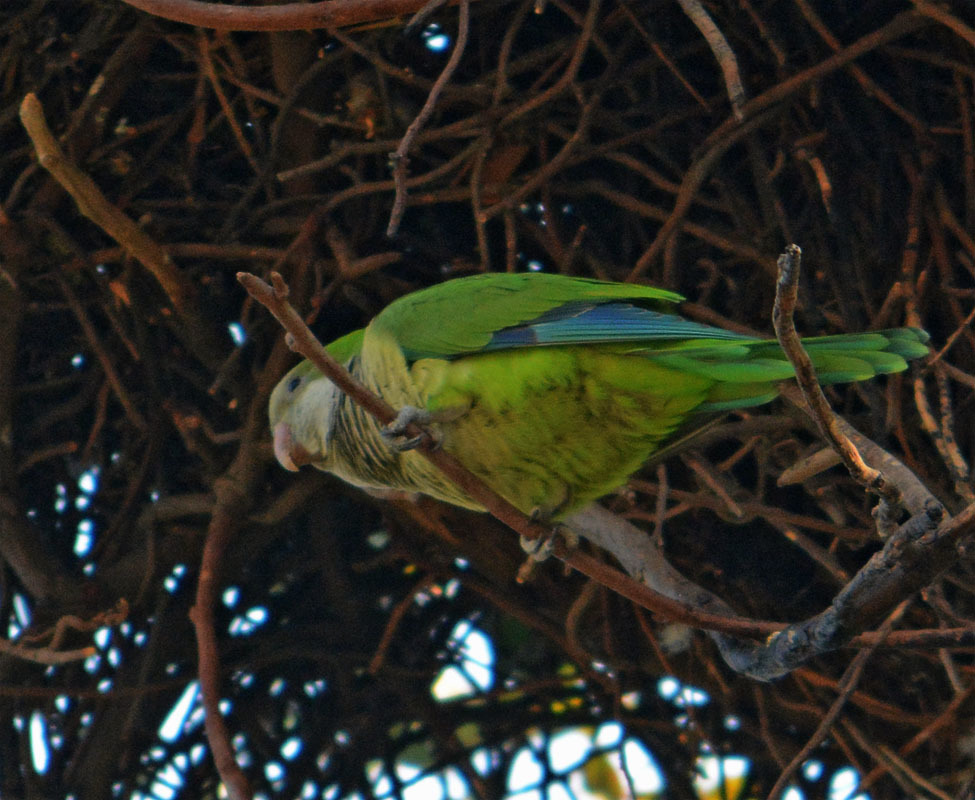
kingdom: Animalia
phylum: Chordata
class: Aves
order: Psittaciformes
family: Psittacidae
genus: Myiopsitta
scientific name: Myiopsitta monachus
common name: Monk parakeet
